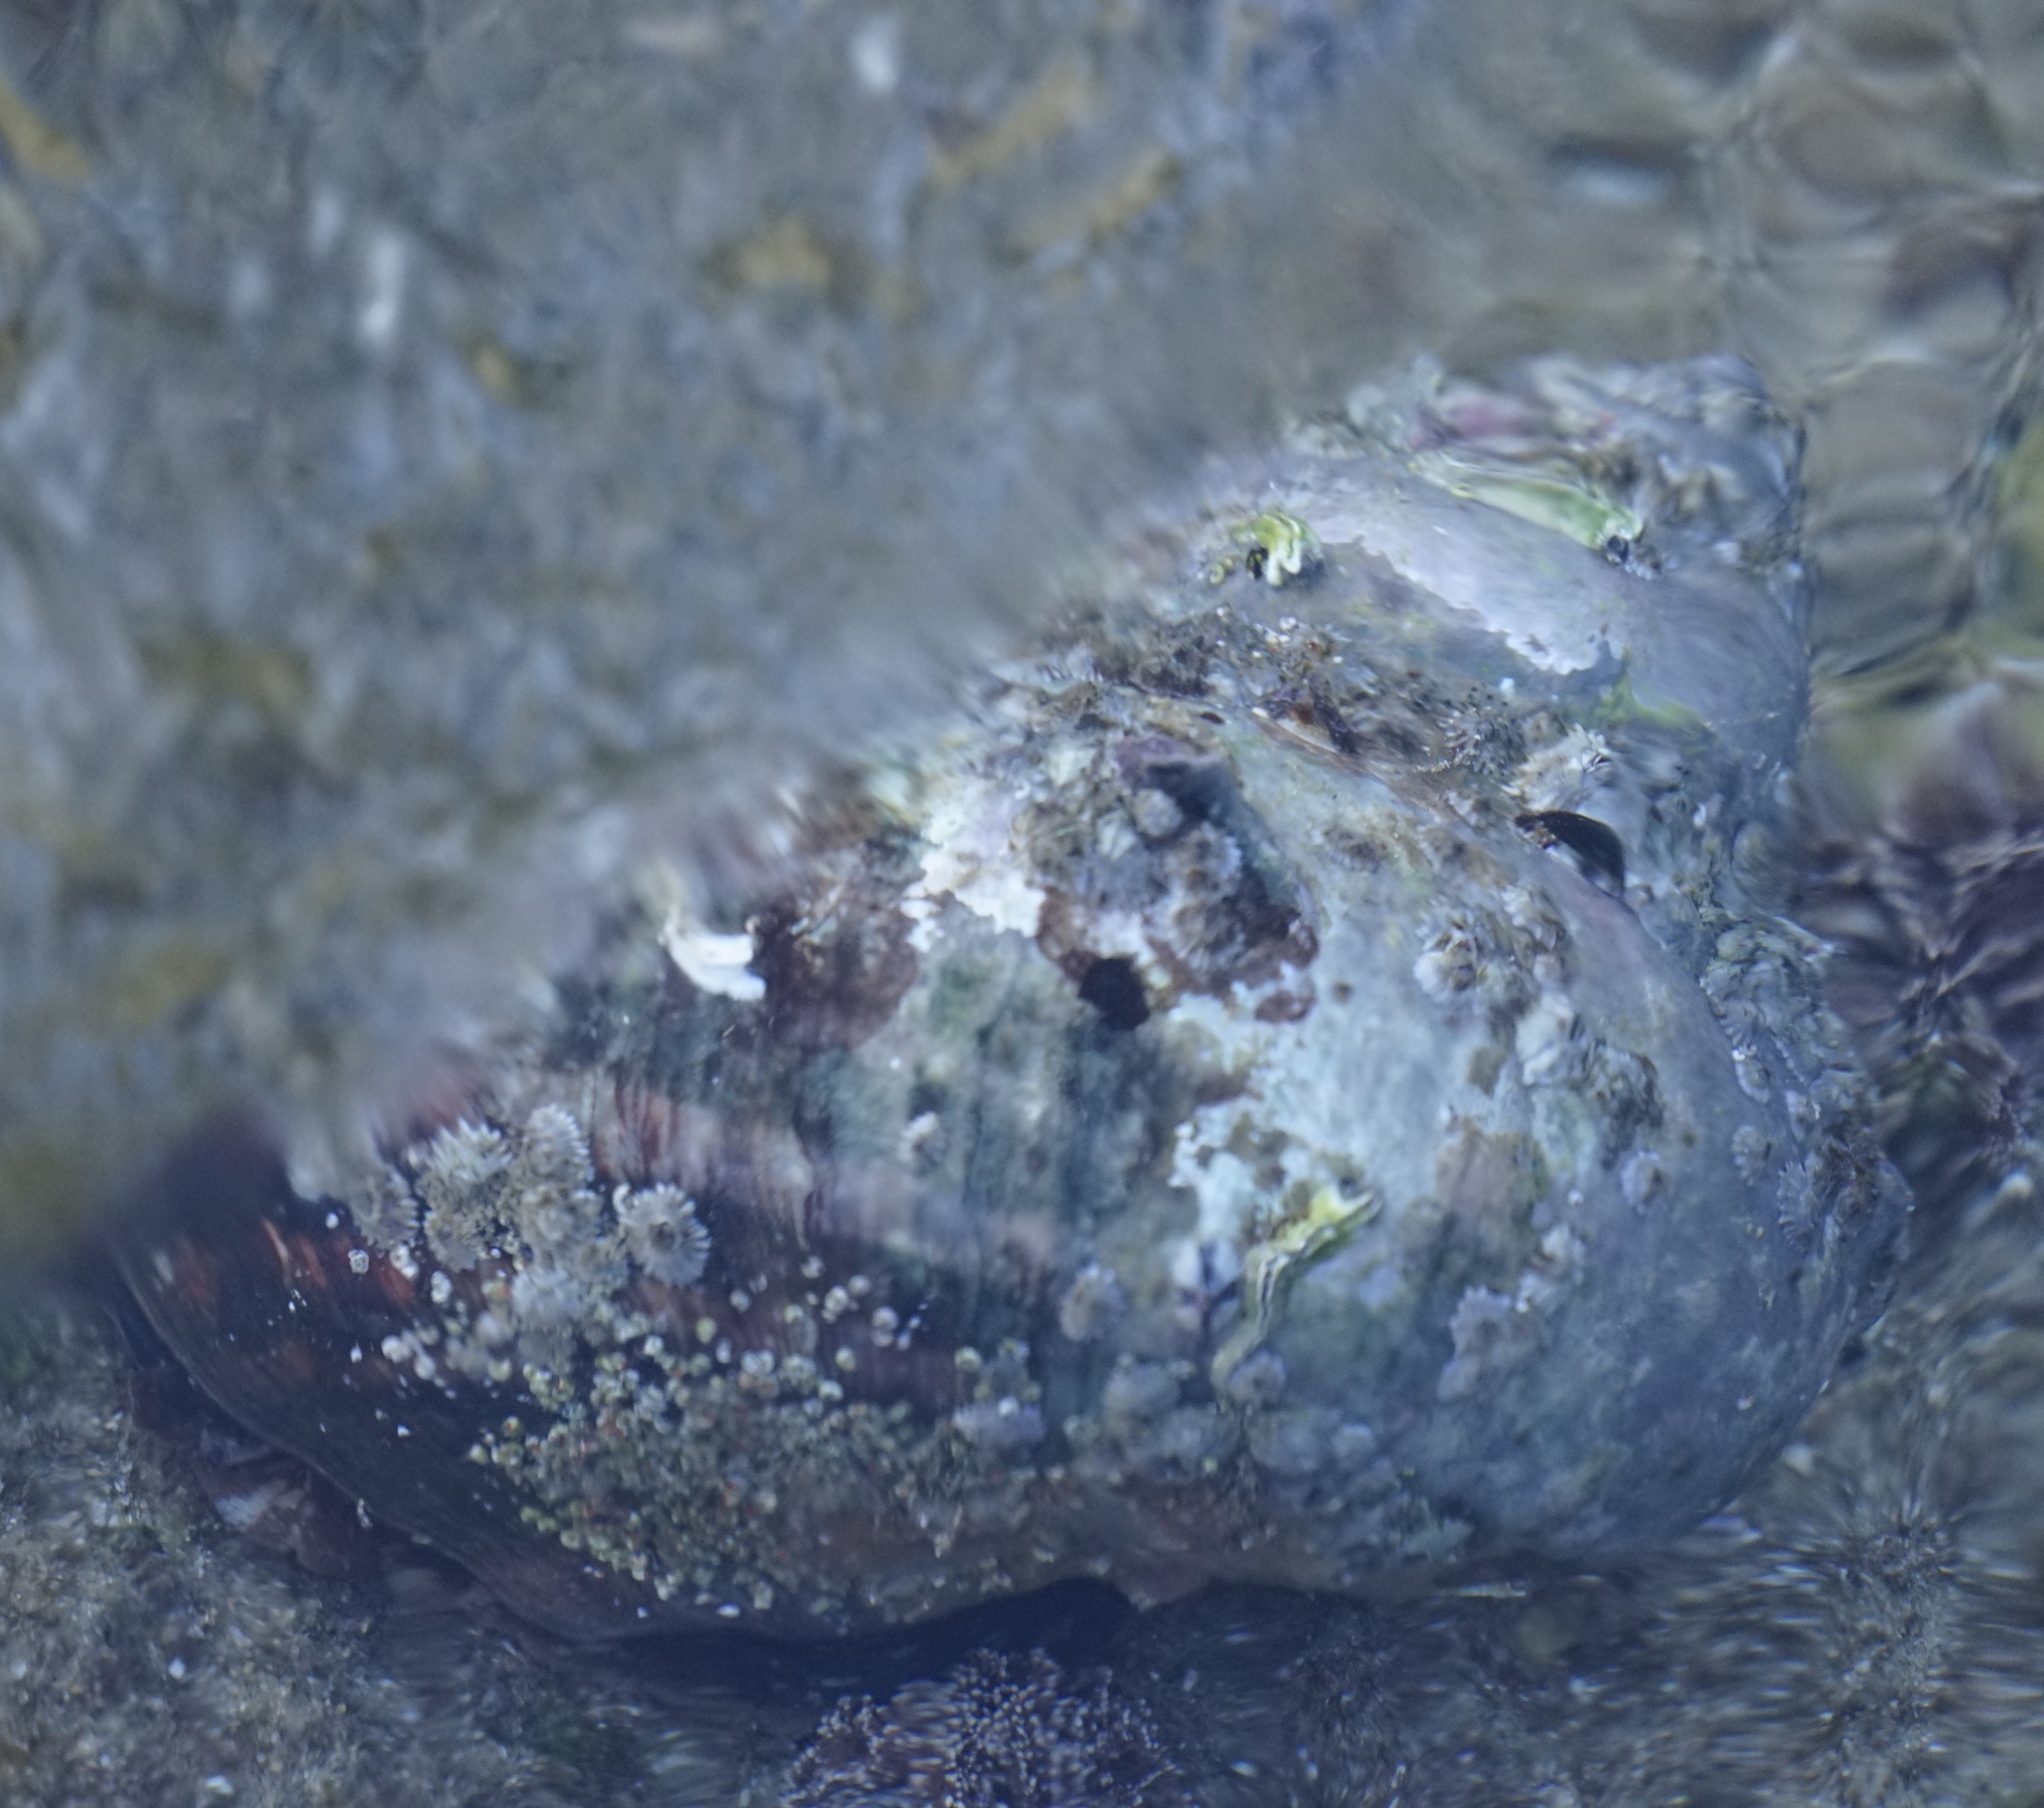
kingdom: Animalia
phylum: Mollusca
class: Gastropoda
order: Trochida
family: Turbinidae
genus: Turbo
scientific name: Turbo militaris
